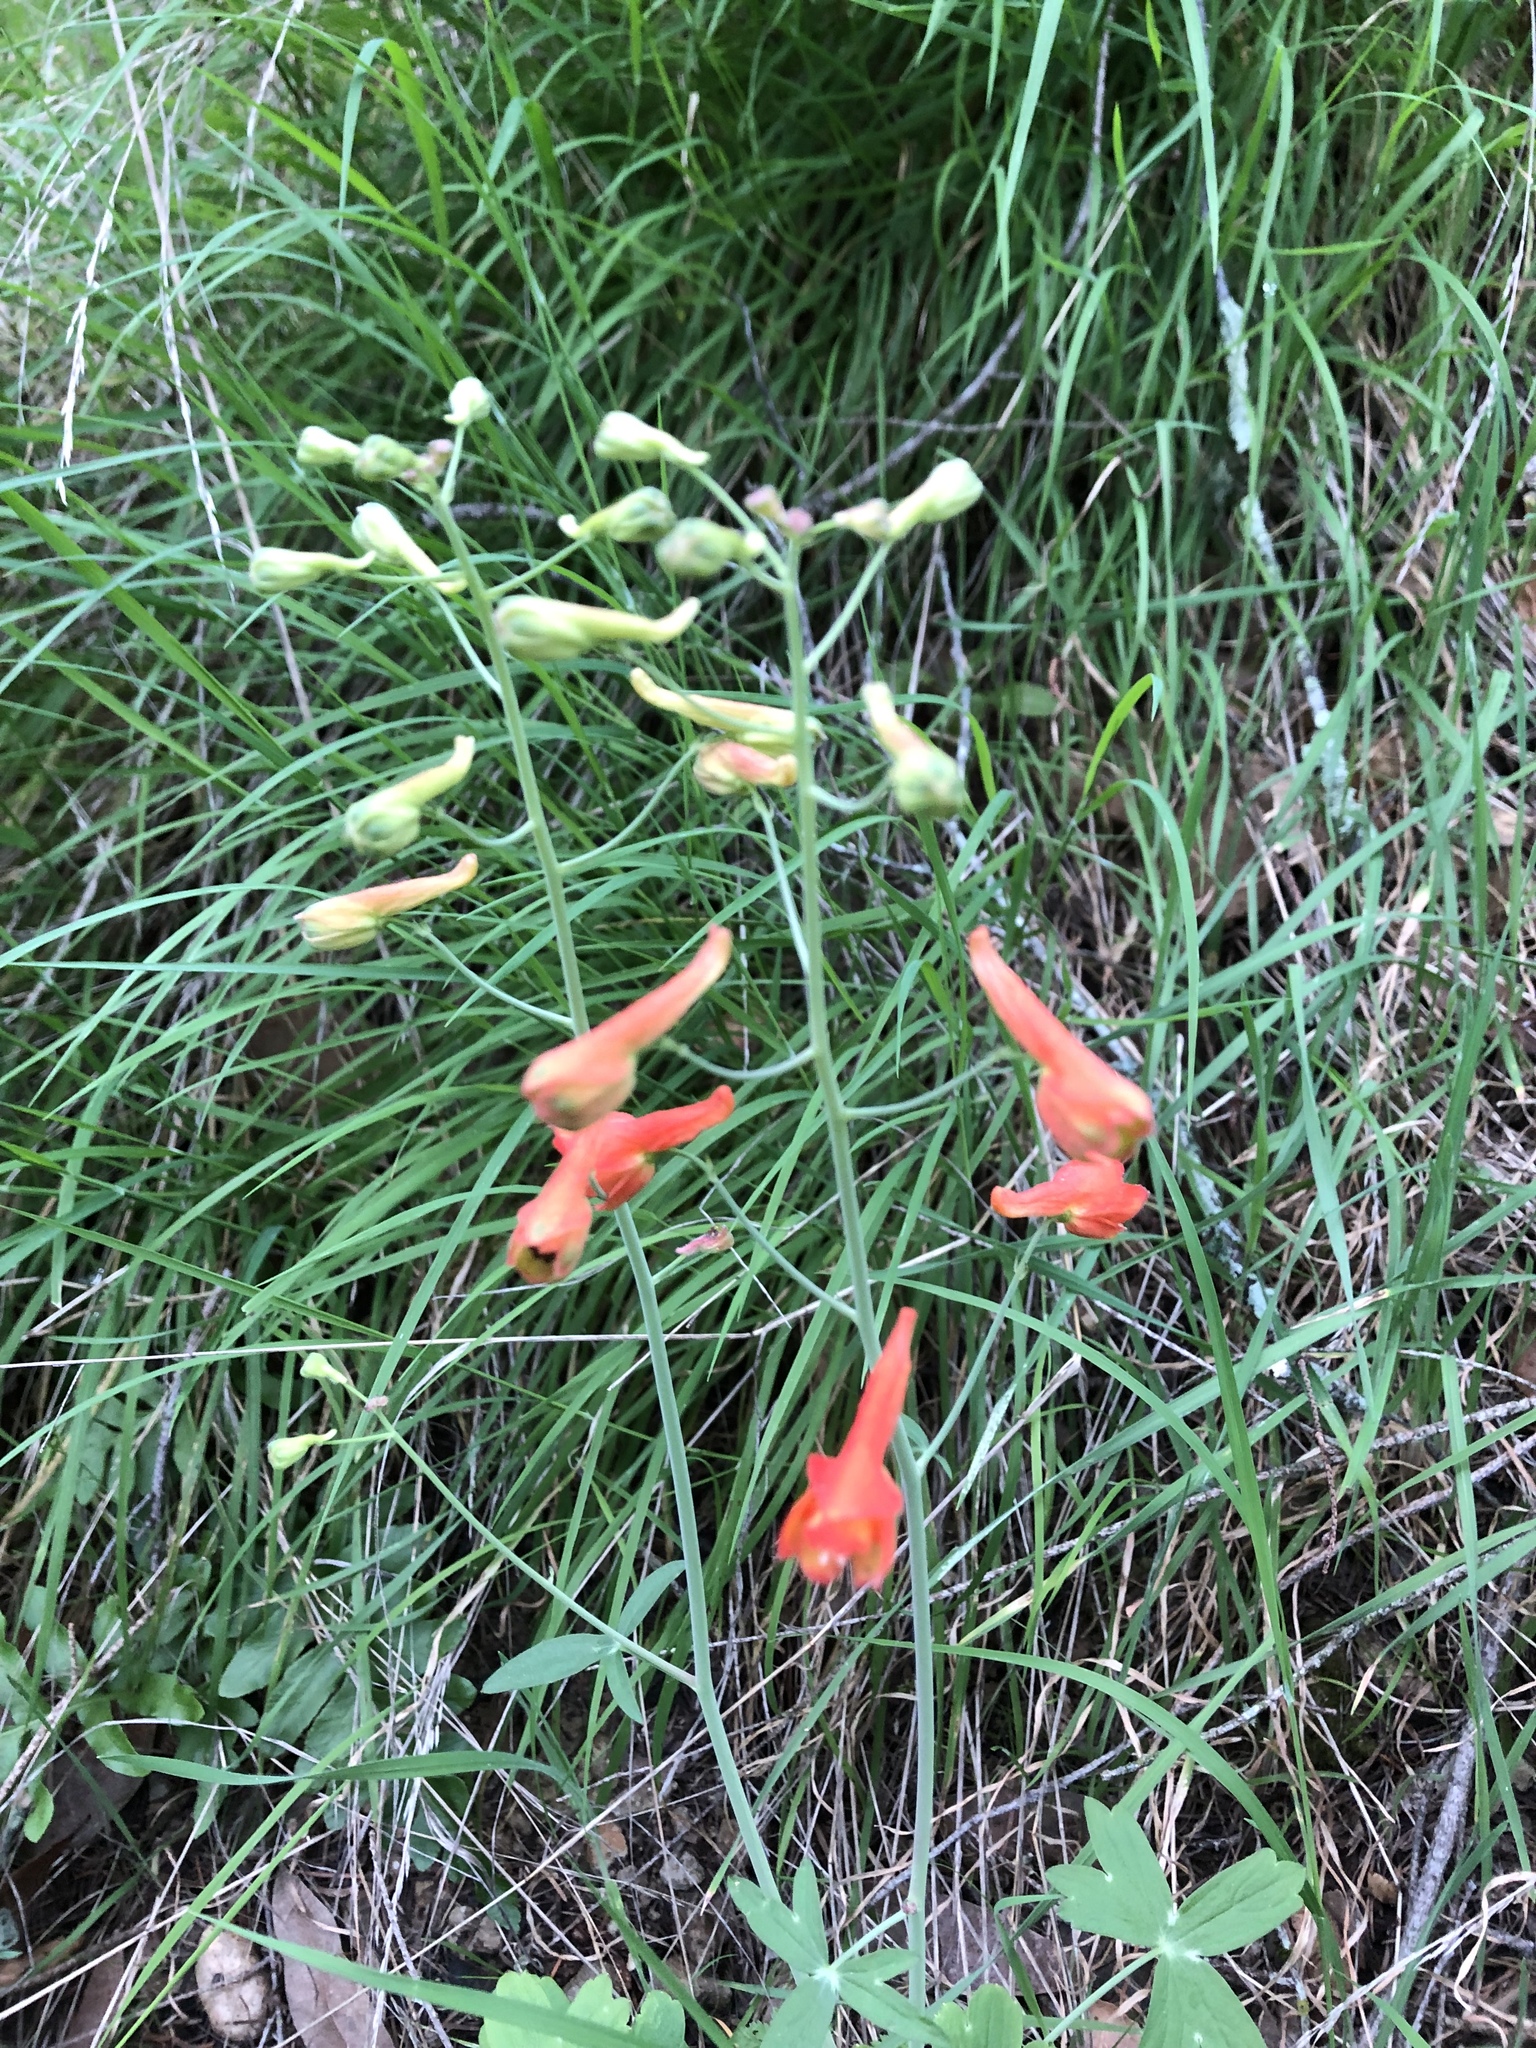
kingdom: Plantae
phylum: Tracheophyta
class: Magnoliopsida
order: Ranunculales
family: Ranunculaceae
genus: Delphinium
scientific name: Delphinium nudicaule
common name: Red larkspur
